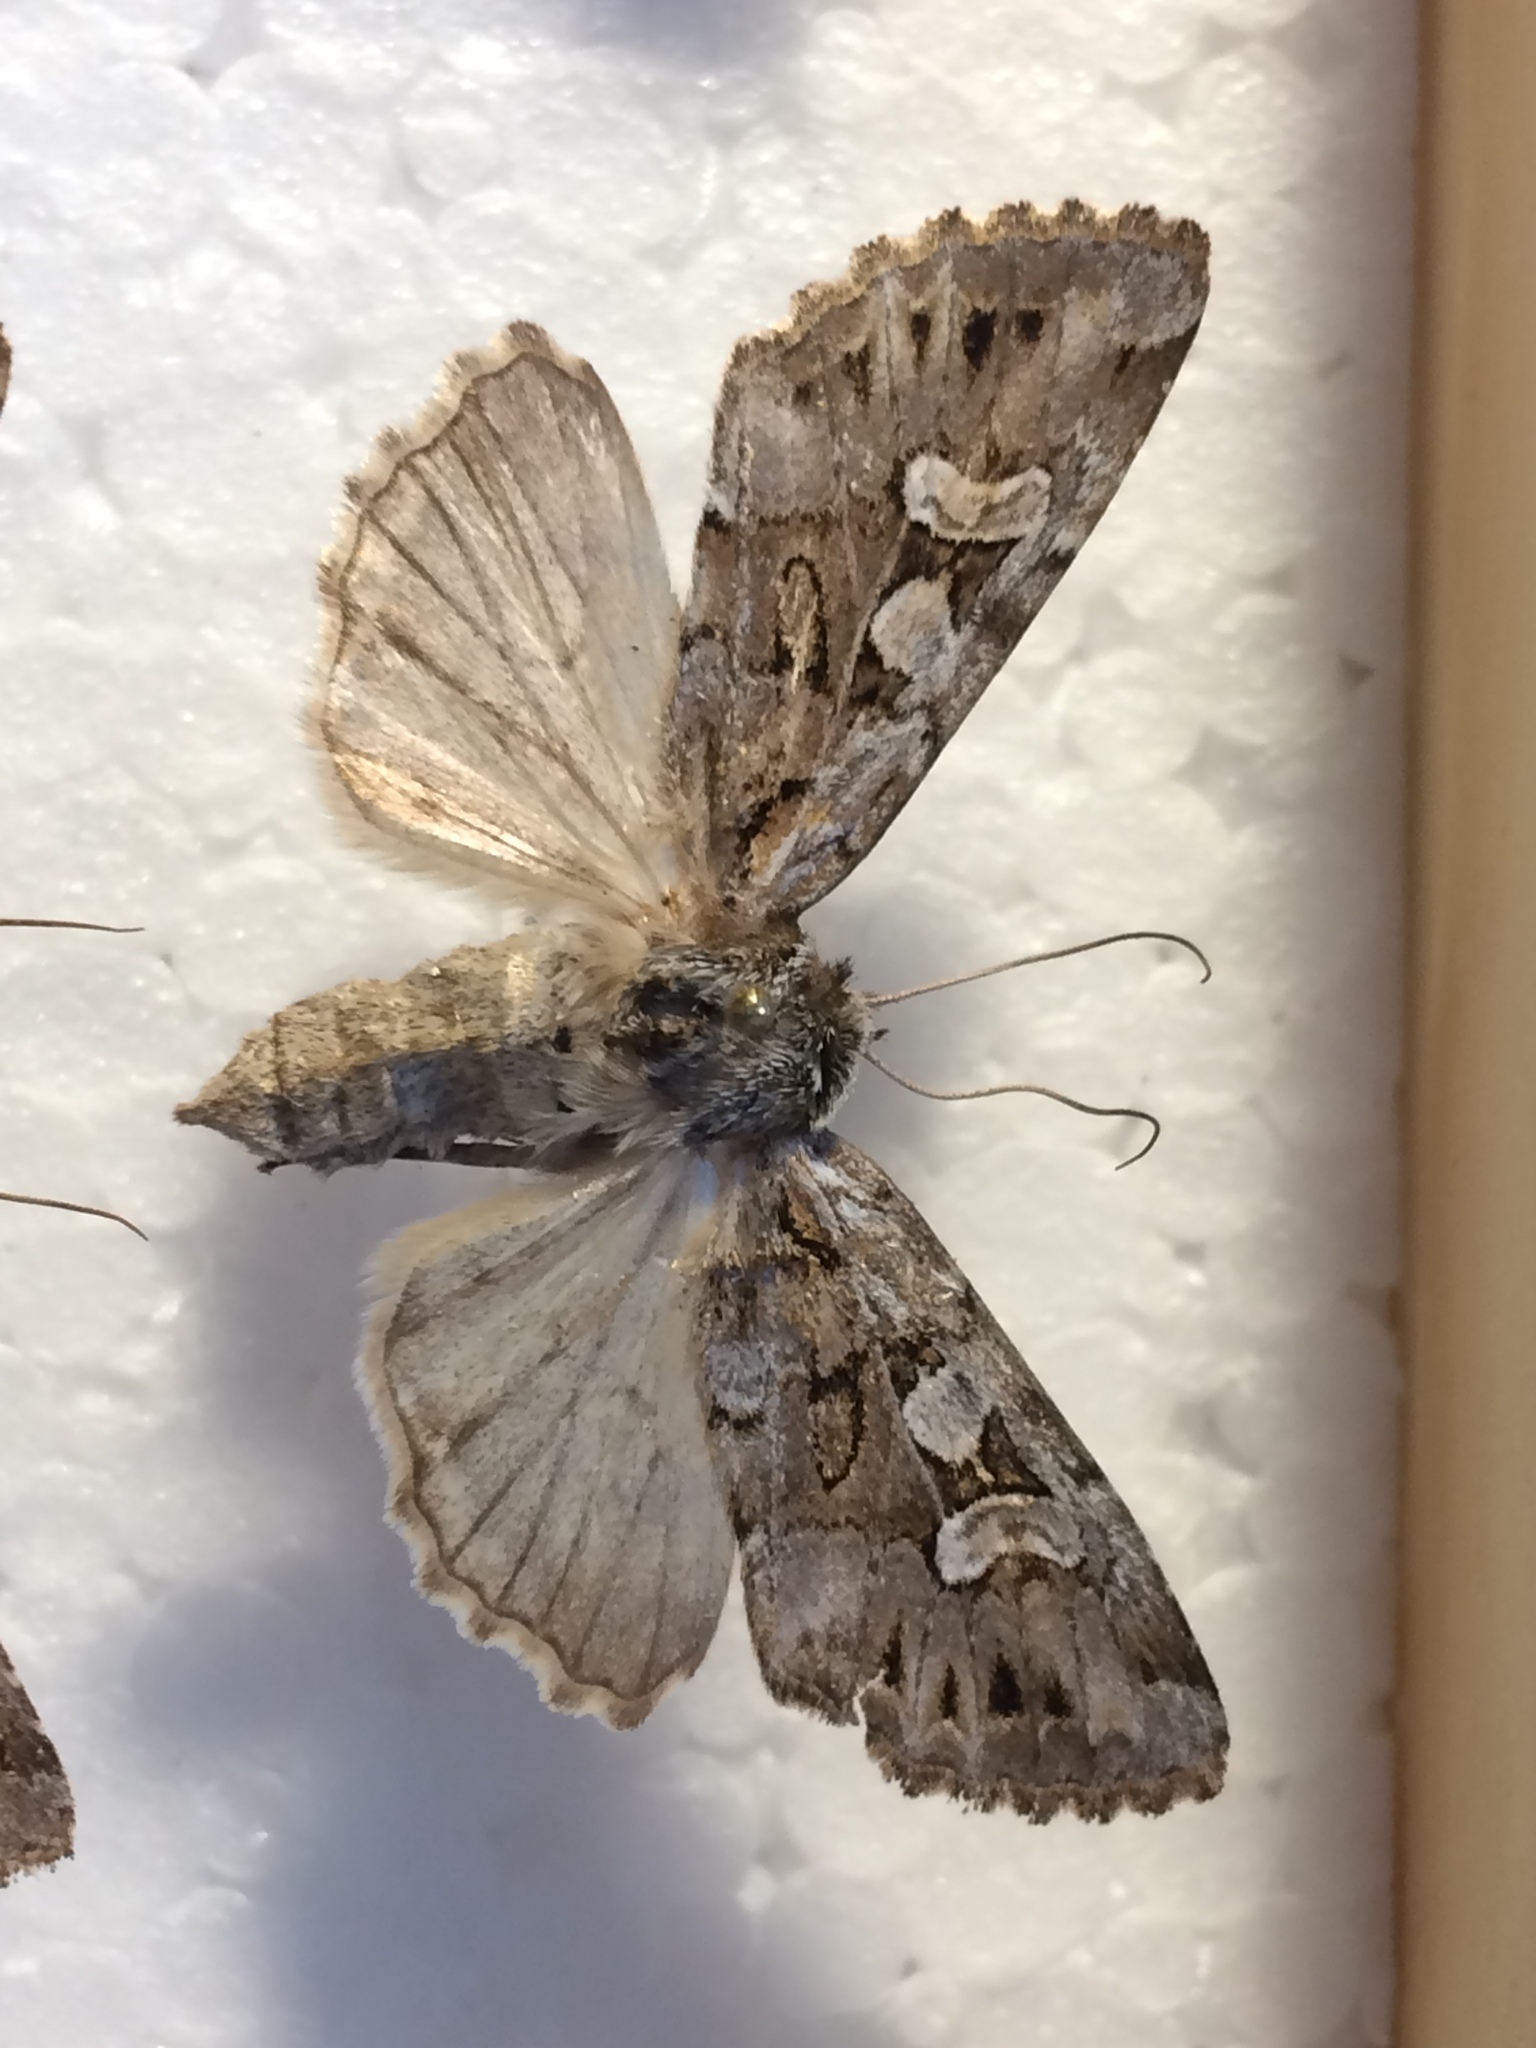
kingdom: Animalia
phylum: Arthropoda
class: Insecta
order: Lepidoptera
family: Noctuidae
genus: Pachetra
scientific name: Pachetra sagittigera
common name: Feathered ear
